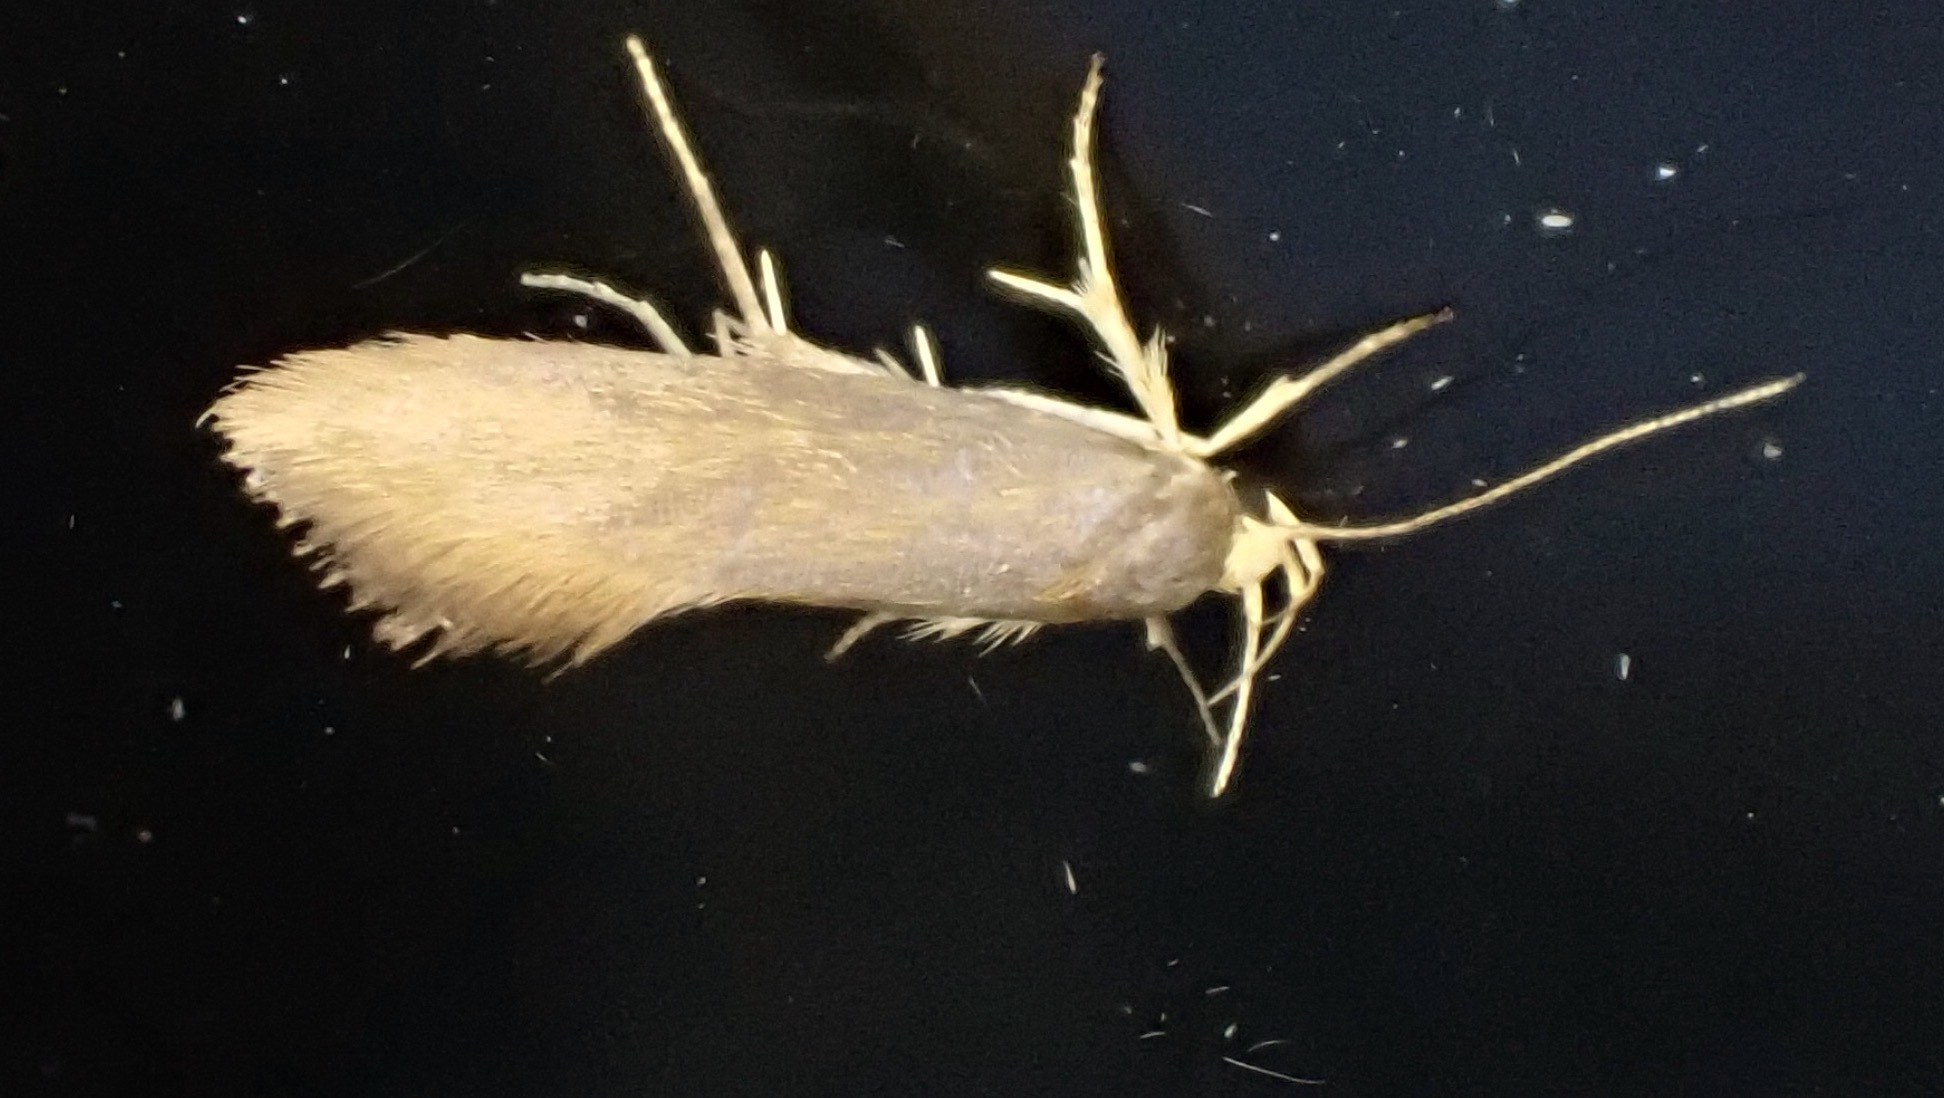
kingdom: Animalia
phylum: Arthropoda
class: Insecta
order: Lepidoptera
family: Oecophoridae
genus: Borkhausenia
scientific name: Borkhausenia Crassa unitella
